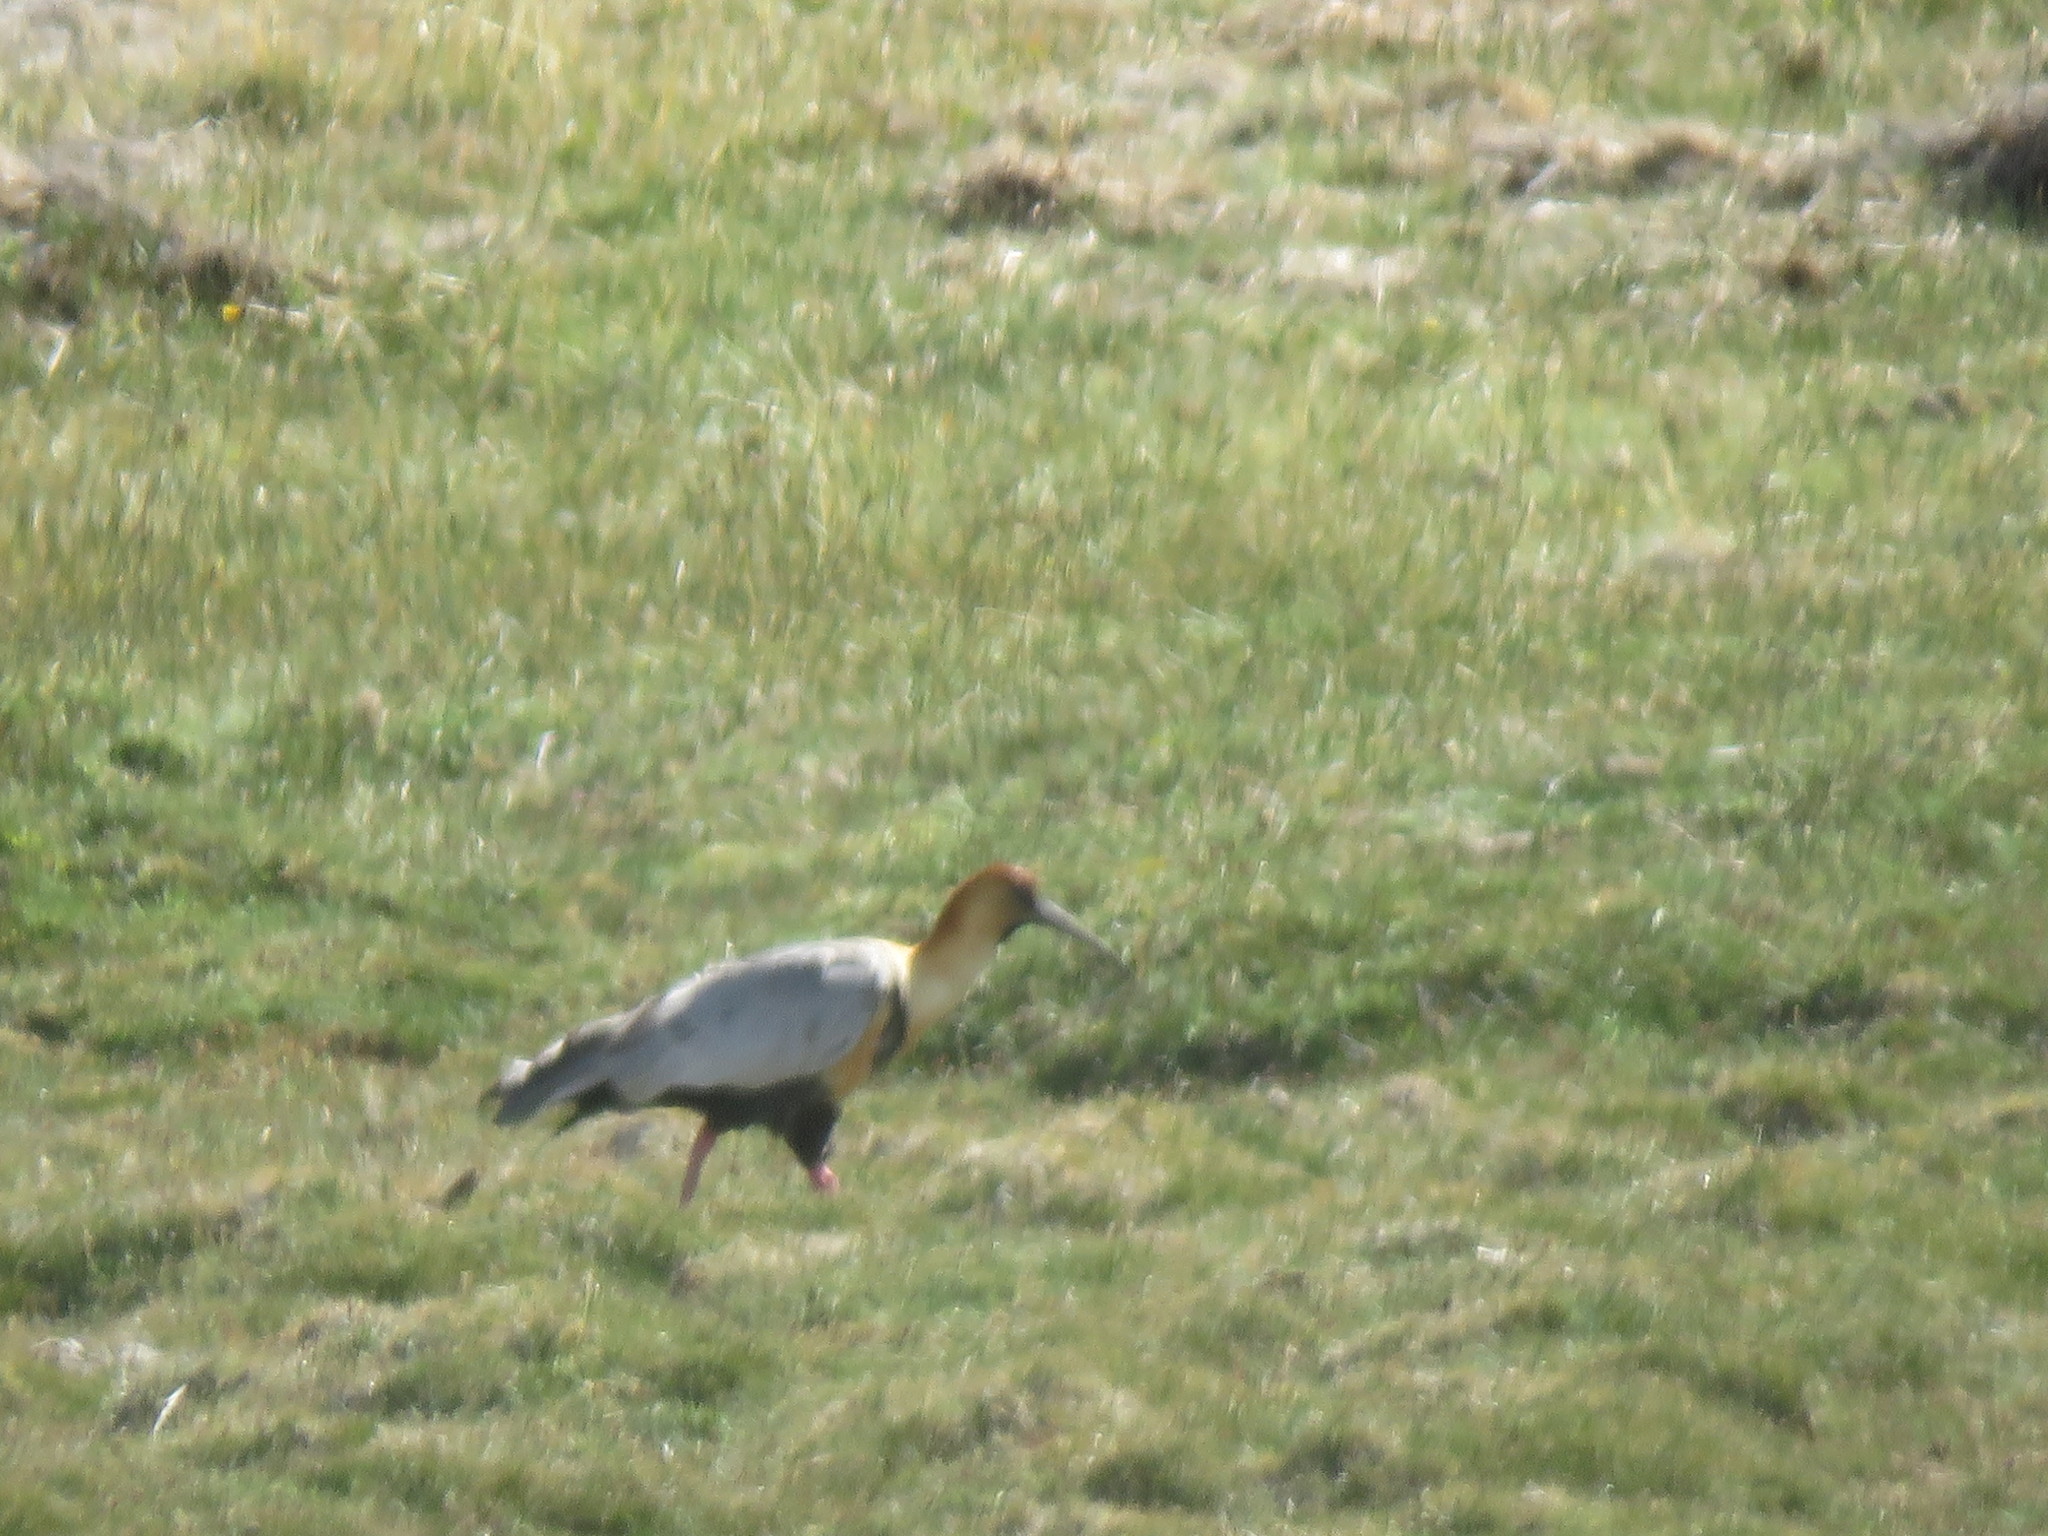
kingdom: Animalia
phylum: Chordata
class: Aves
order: Pelecaniformes
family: Threskiornithidae
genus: Theristicus
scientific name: Theristicus melanopis
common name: Black-faced ibis
